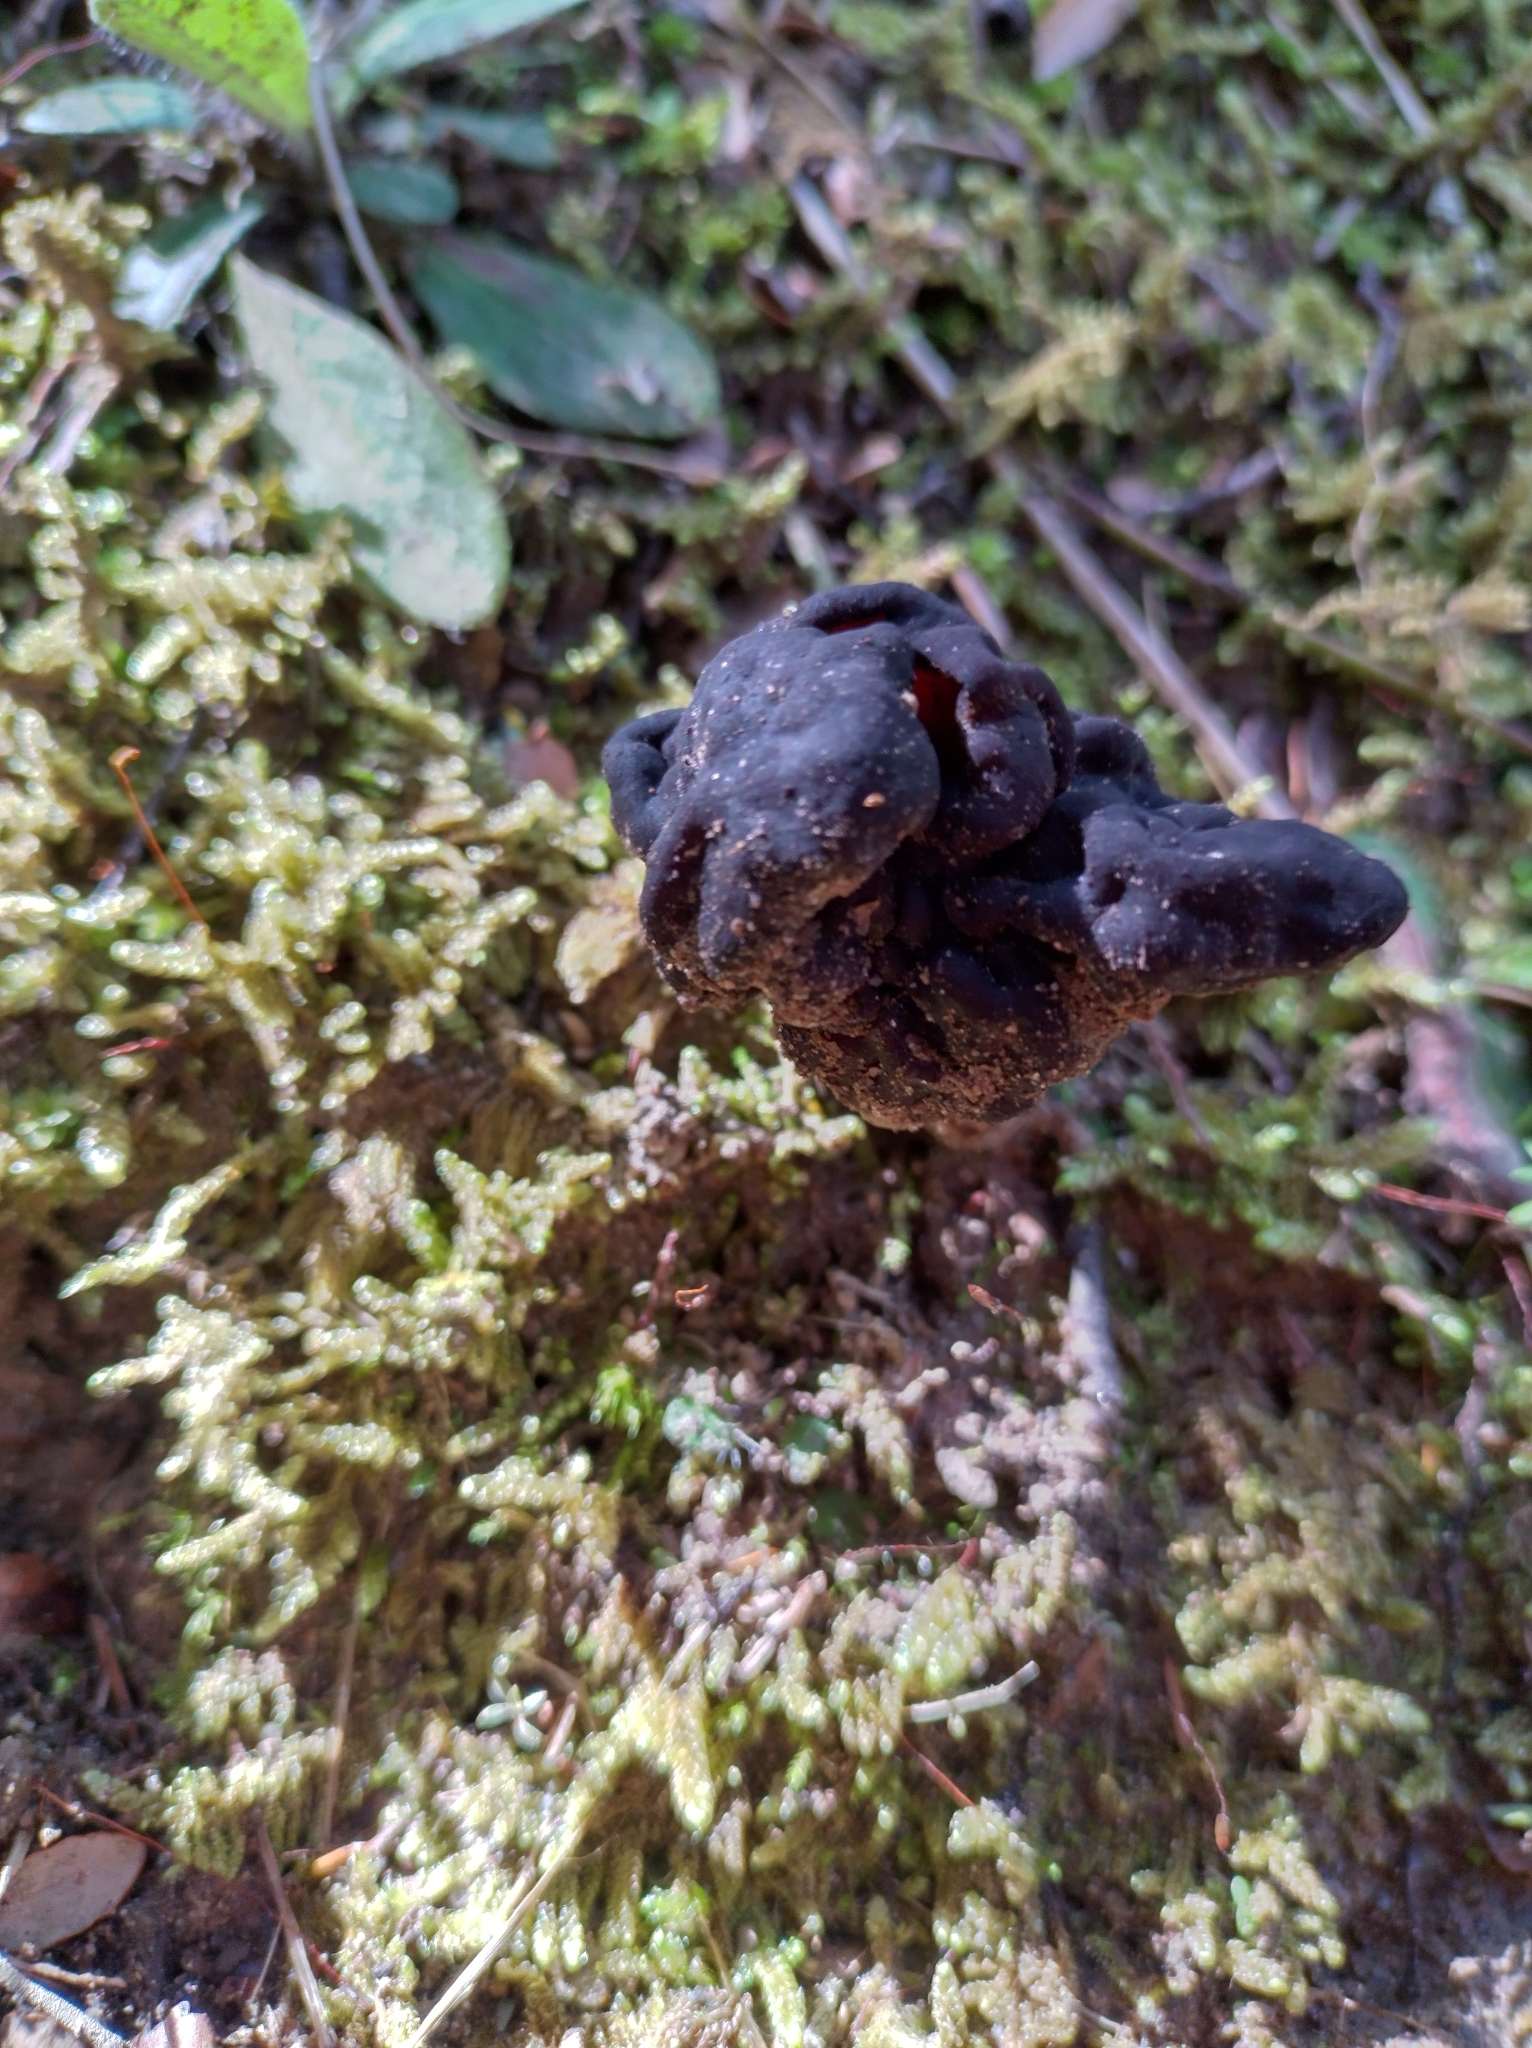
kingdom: Fungi
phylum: Ascomycota
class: Pezizomycetes
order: Pezizales
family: Discinaceae
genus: Gyromitra
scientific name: Gyromitra tasmanica
